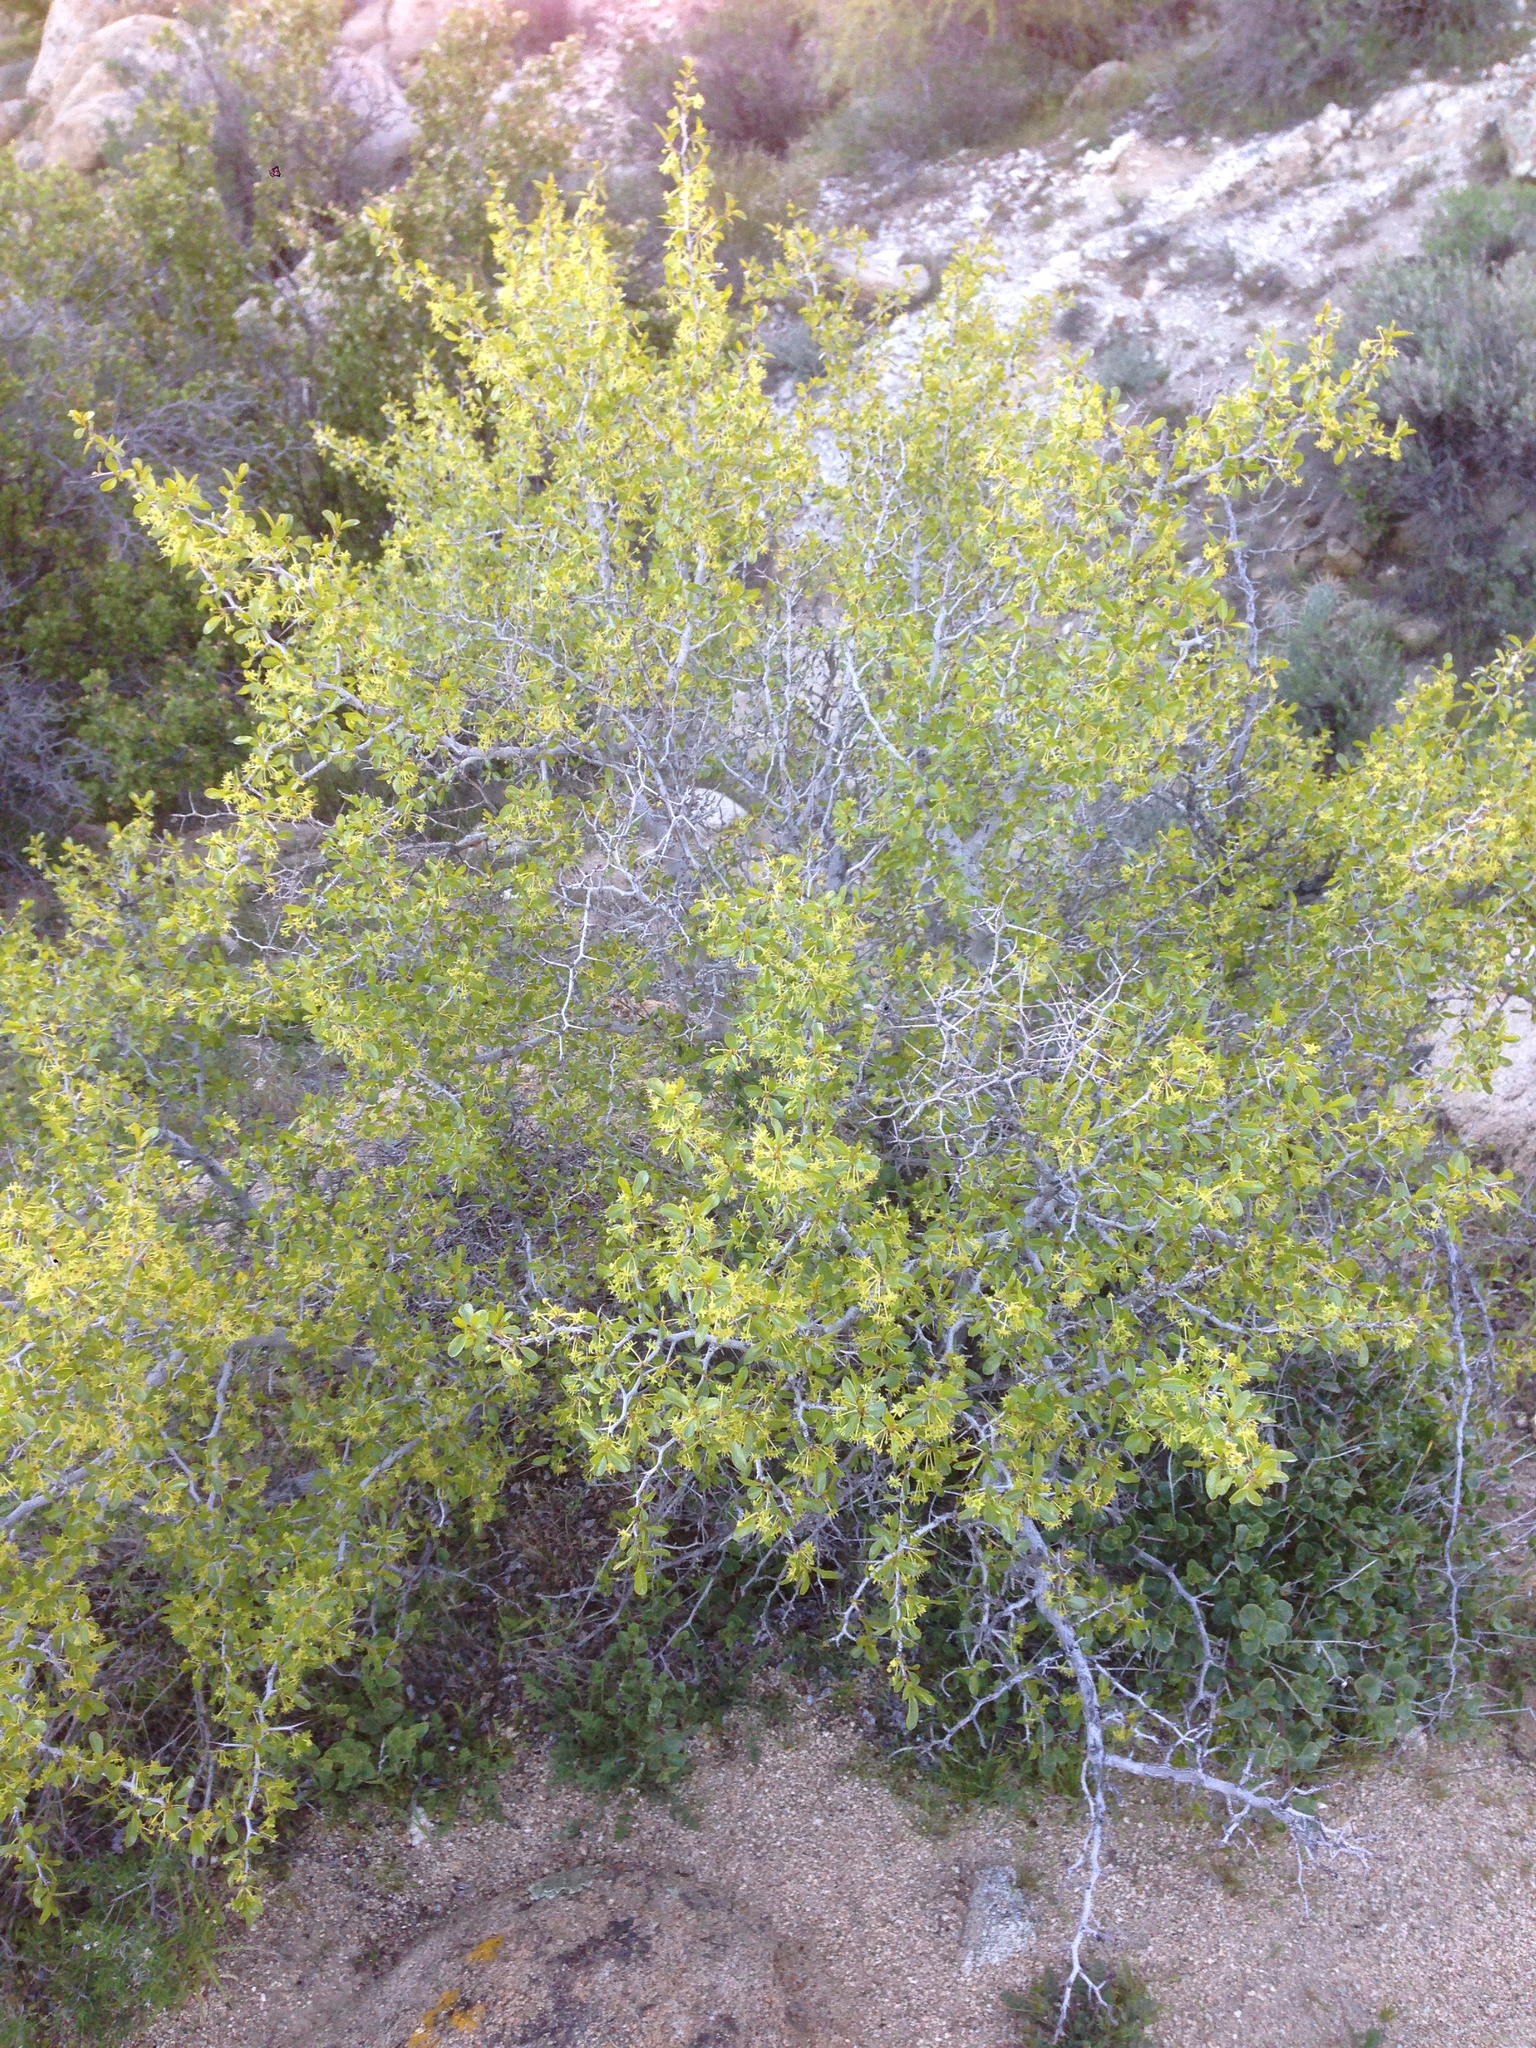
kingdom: Plantae
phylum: Tracheophyta
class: Magnoliopsida
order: Rosales
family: Rhamnaceae
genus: Pseudoziziphus
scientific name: Pseudoziziphus parryi
